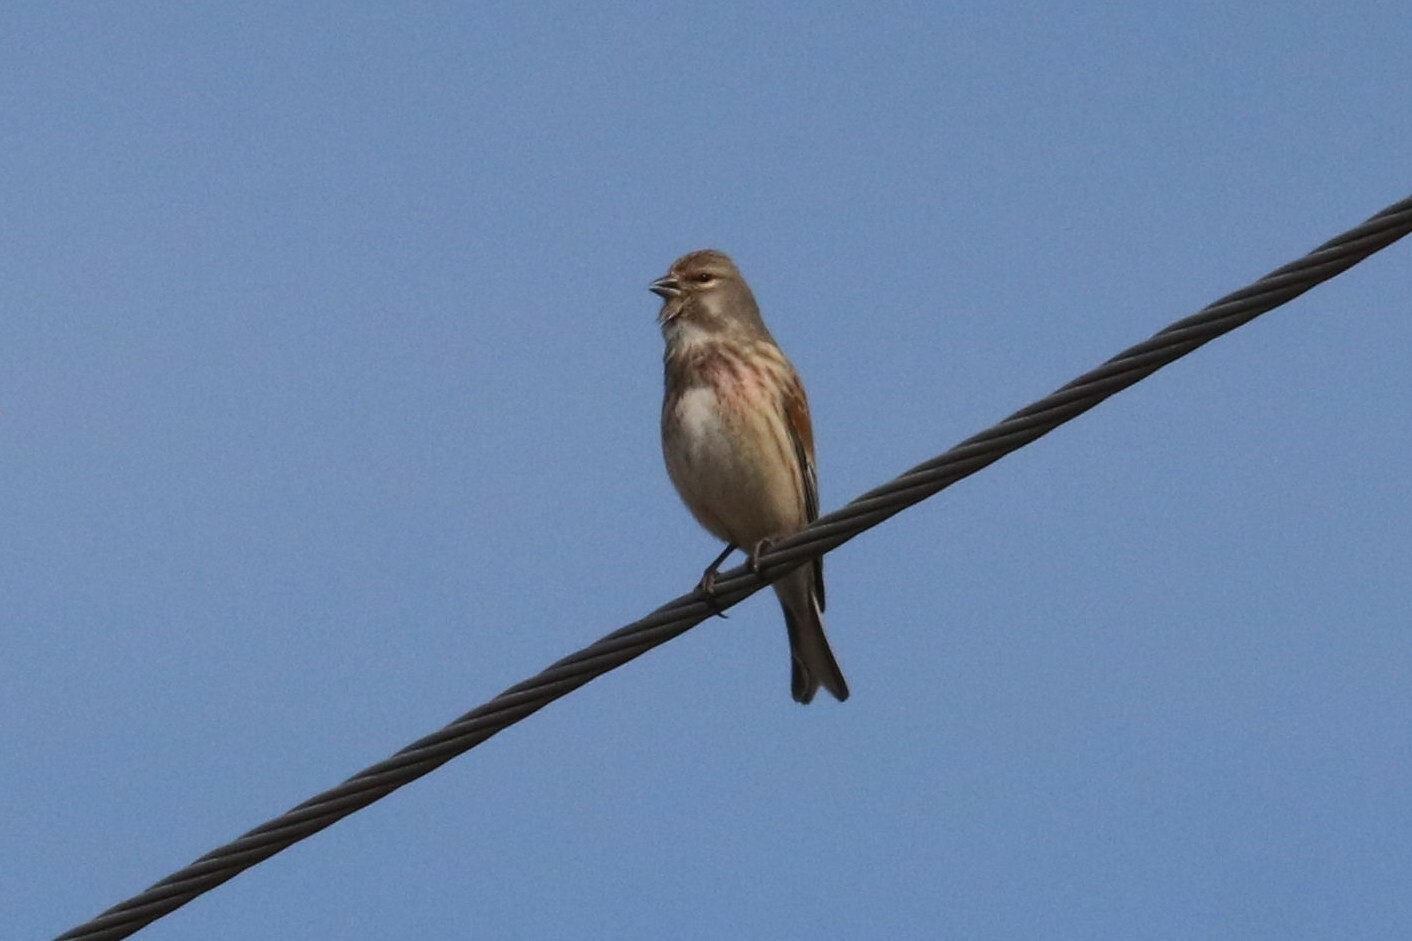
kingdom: Animalia
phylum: Chordata
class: Aves
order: Passeriformes
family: Fringillidae
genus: Linaria
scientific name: Linaria cannabina
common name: Common linnet
